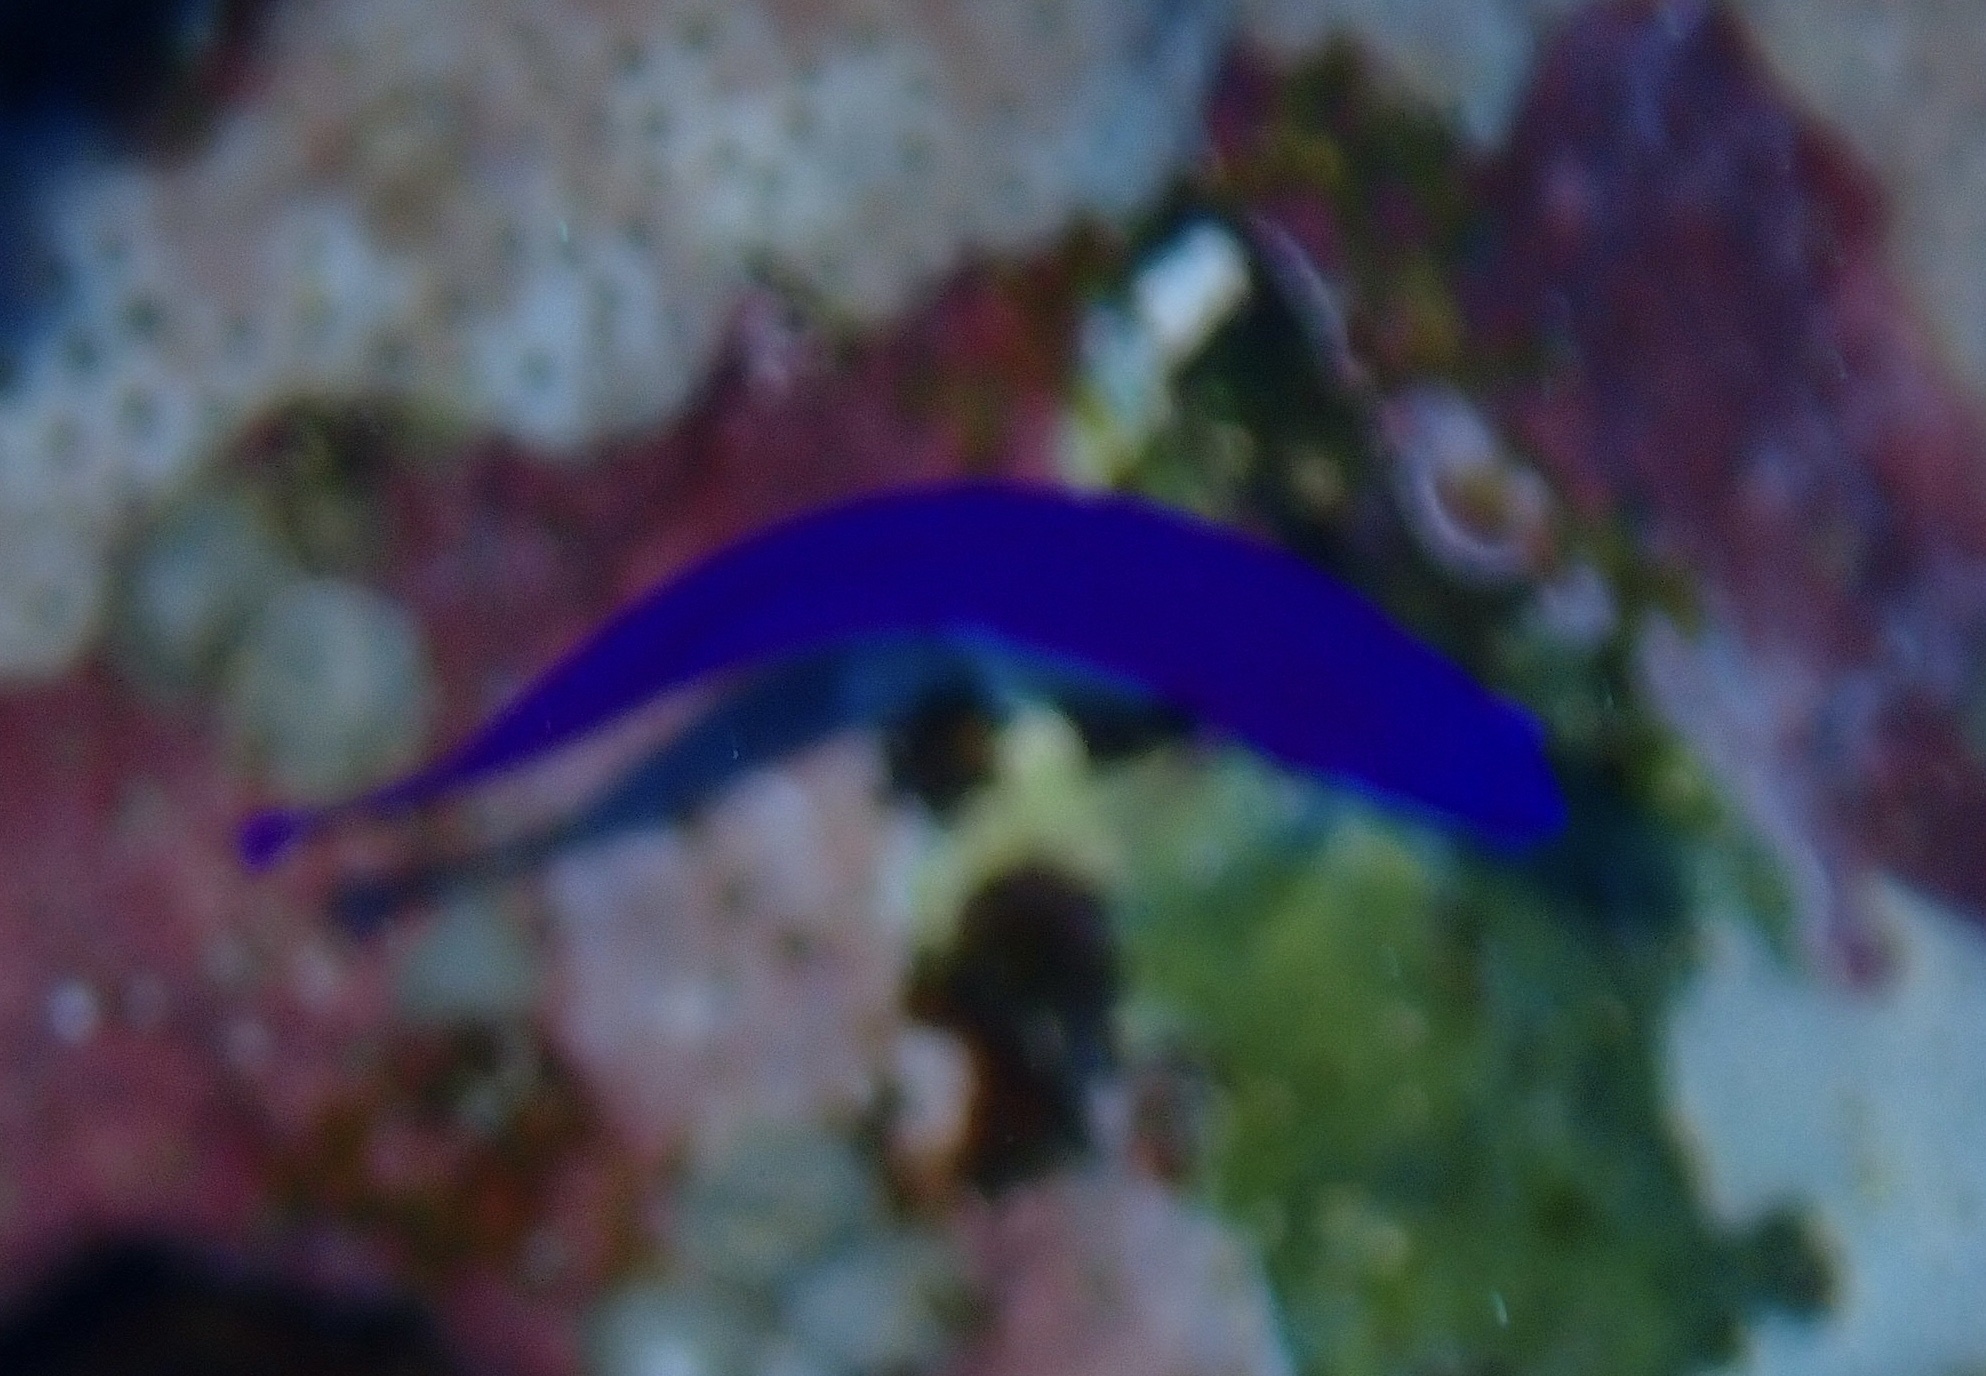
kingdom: Animalia
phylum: Chordata
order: Perciformes
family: Pseudochromidae
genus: Pseudochromis
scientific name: Pseudochromis fridmani
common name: Orchid dottyback
